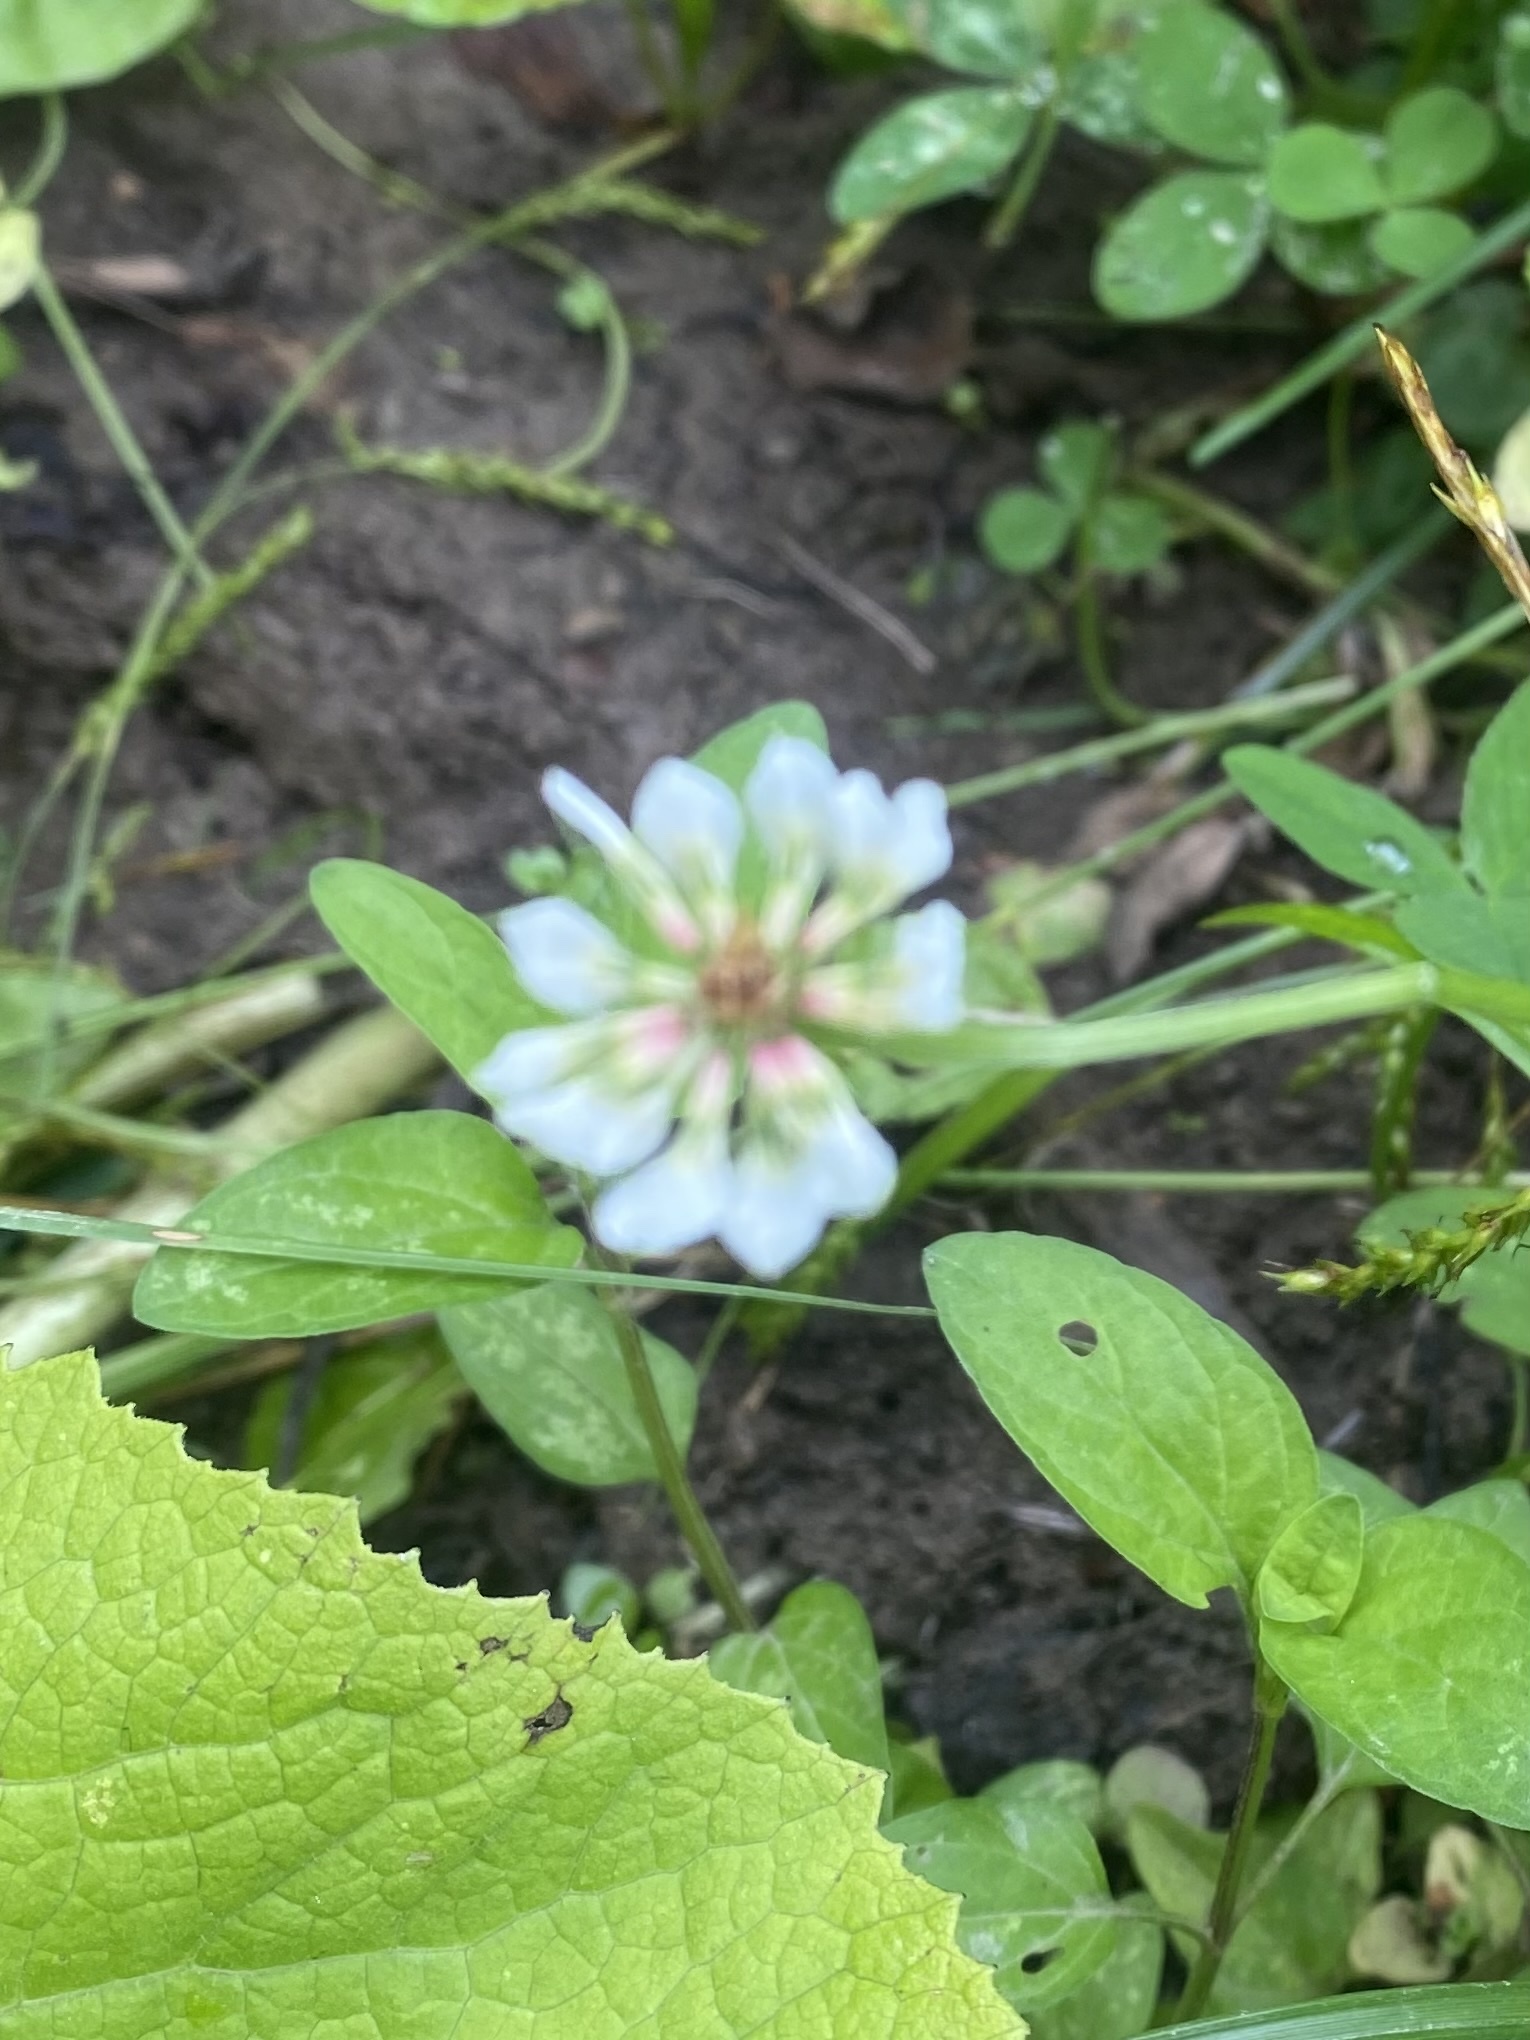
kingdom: Plantae
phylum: Tracheophyta
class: Magnoliopsida
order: Fabales
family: Fabaceae
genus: Trifolium
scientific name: Trifolium repens
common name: White clover
